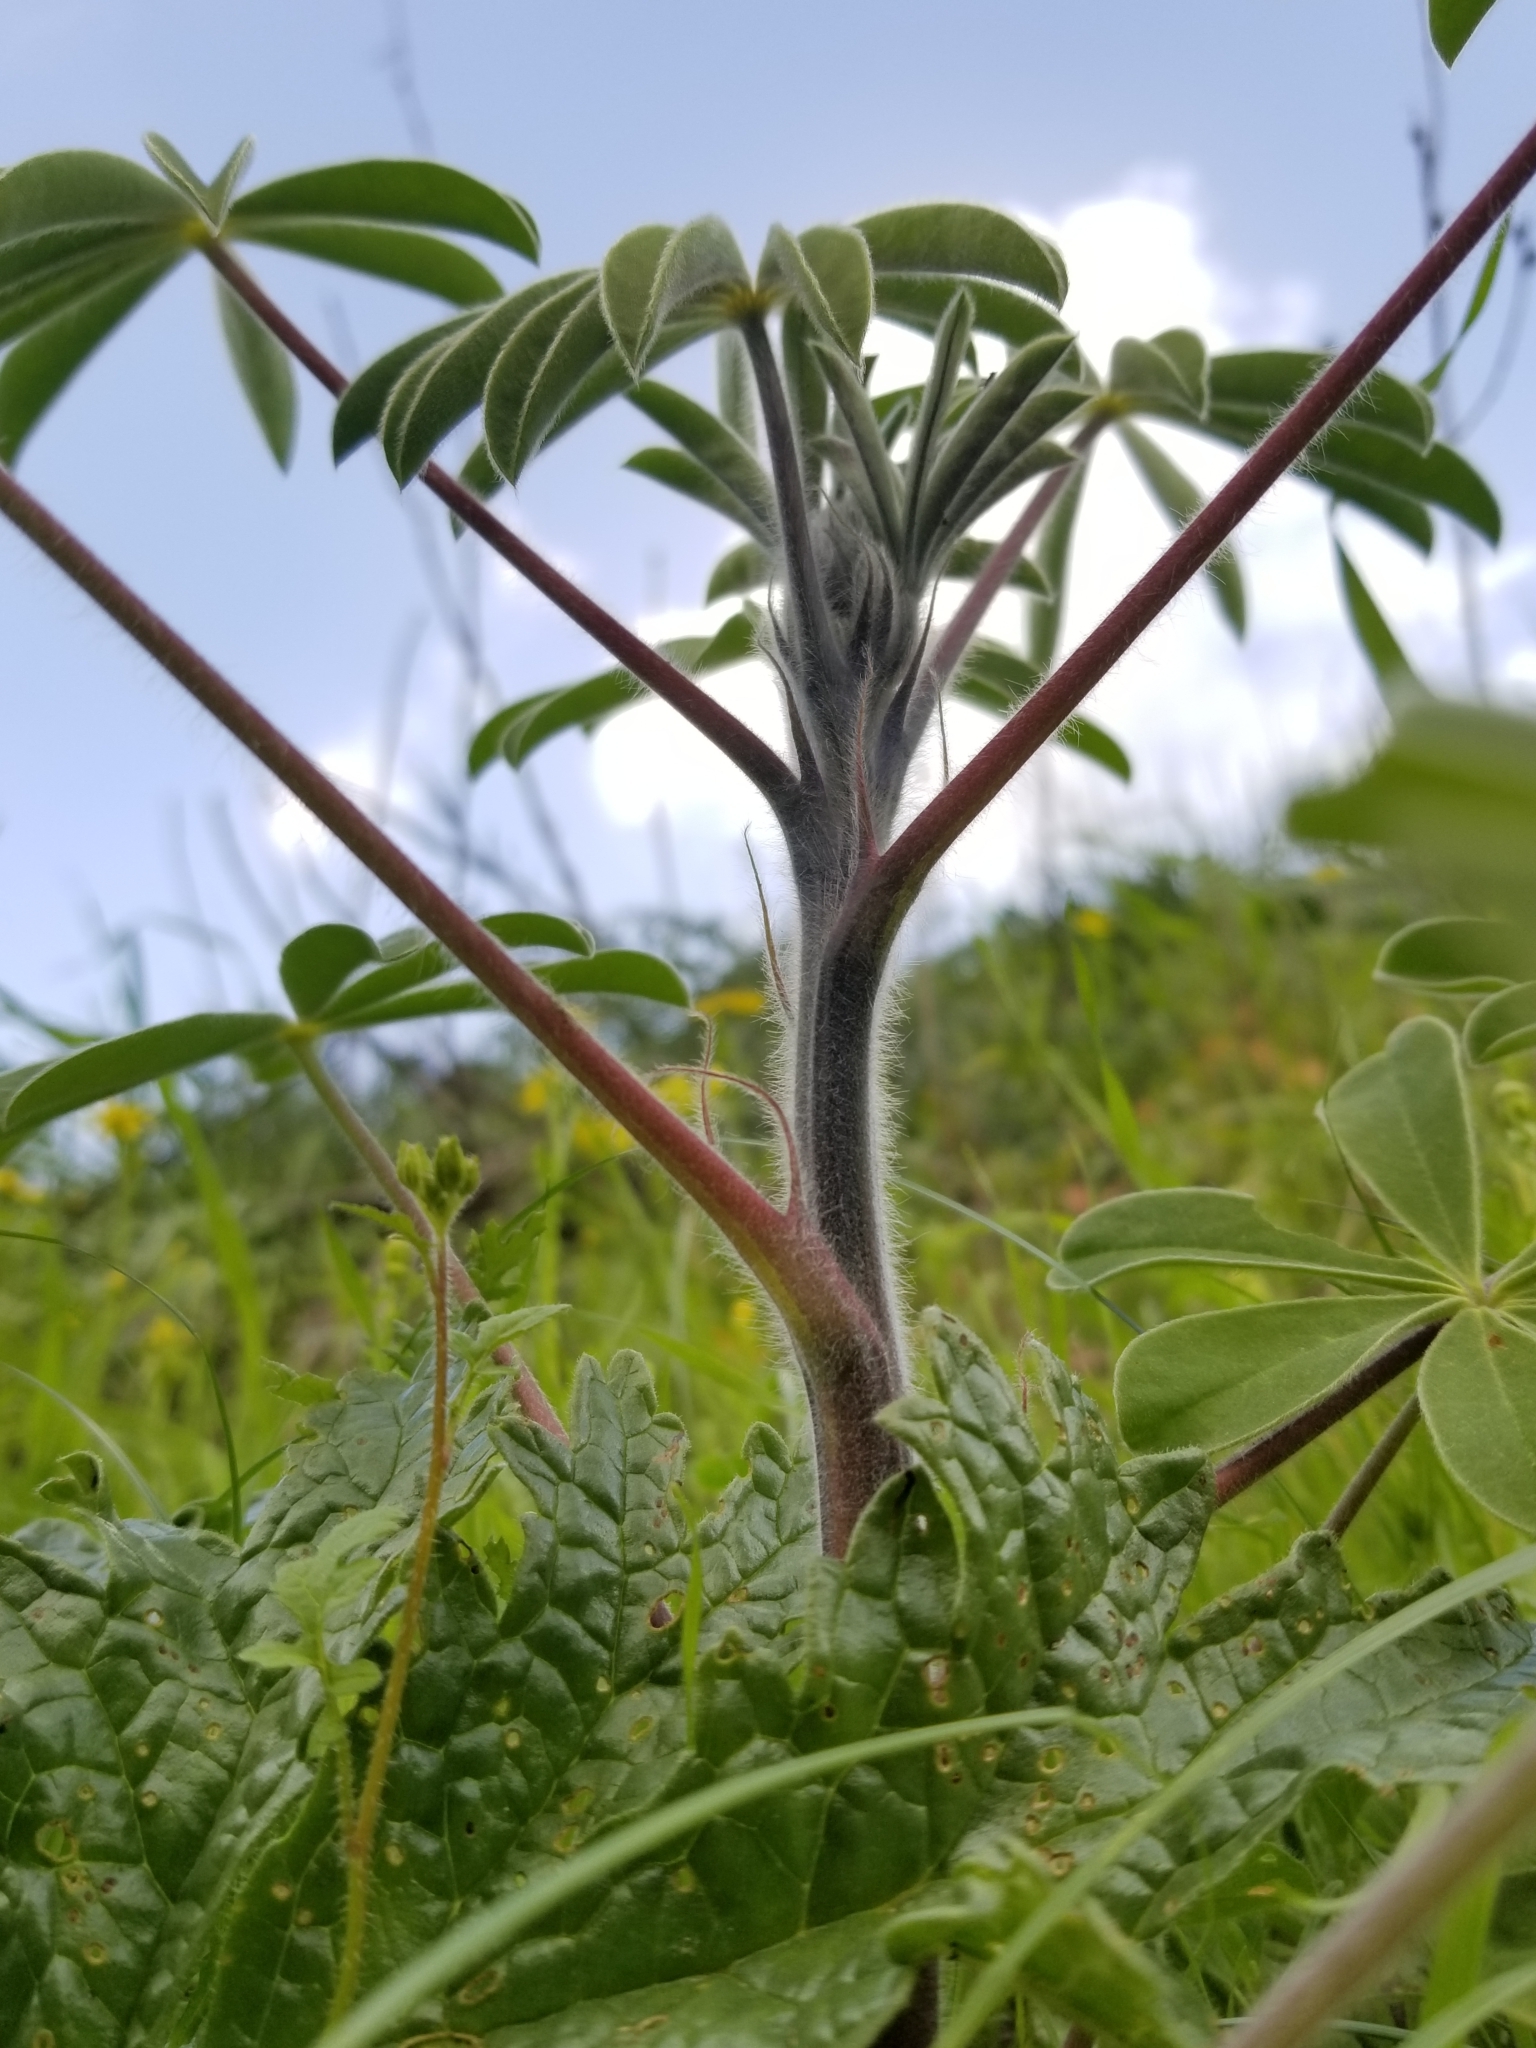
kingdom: Plantae
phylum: Tracheophyta
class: Magnoliopsida
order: Fabales
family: Fabaceae
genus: Lupinus
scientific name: Lupinus pilosus
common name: Blue lupine
